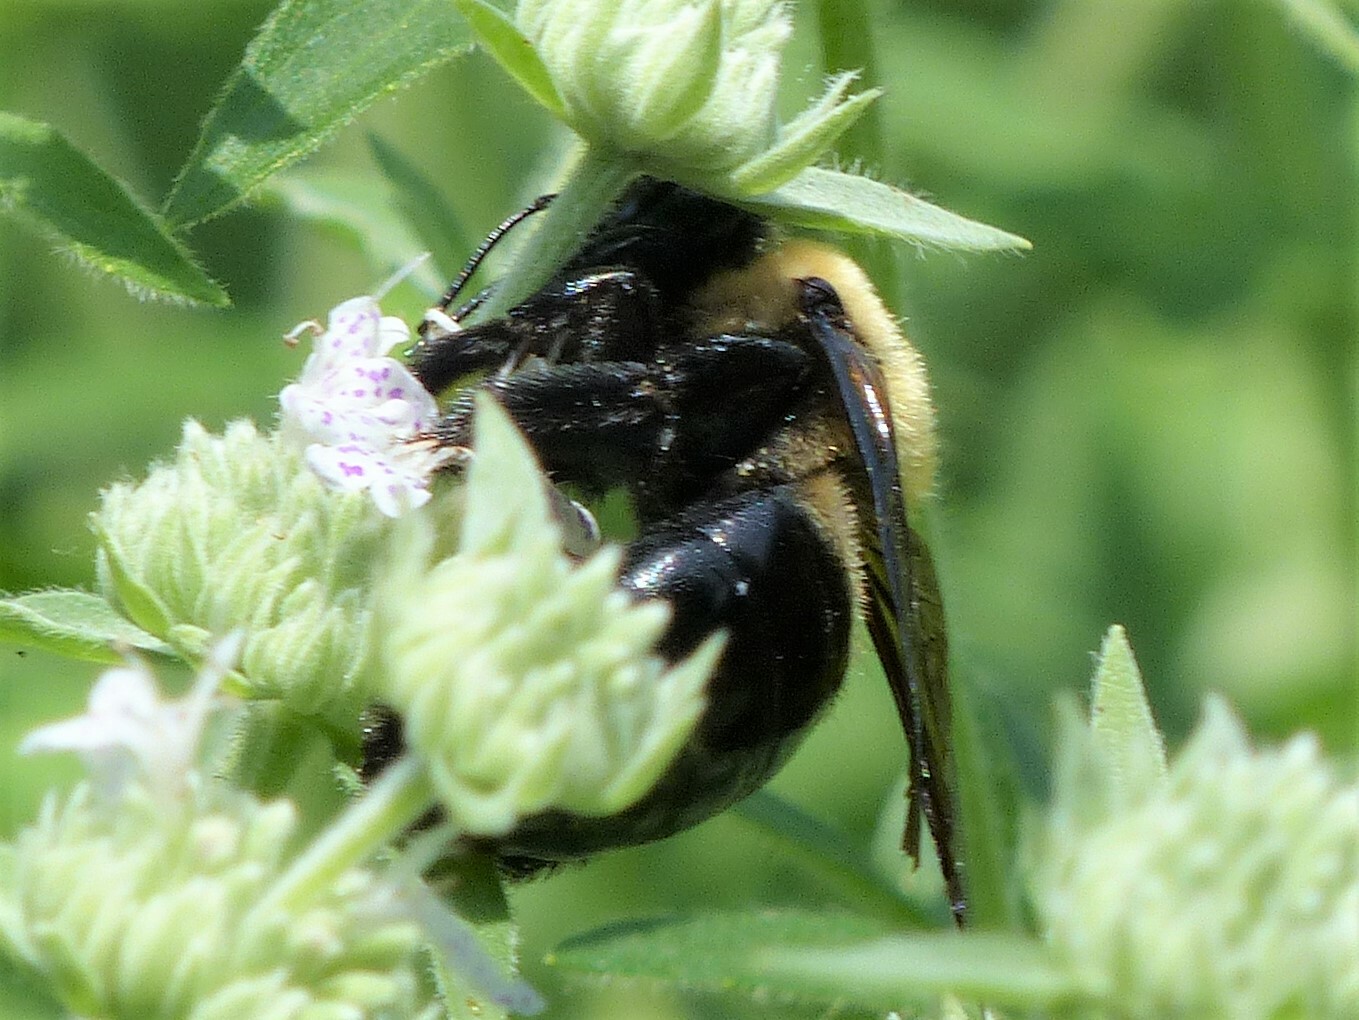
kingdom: Animalia
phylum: Arthropoda
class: Insecta
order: Hymenoptera
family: Apidae
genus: Xylocopa
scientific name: Xylocopa virginica
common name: Carpenter bee
